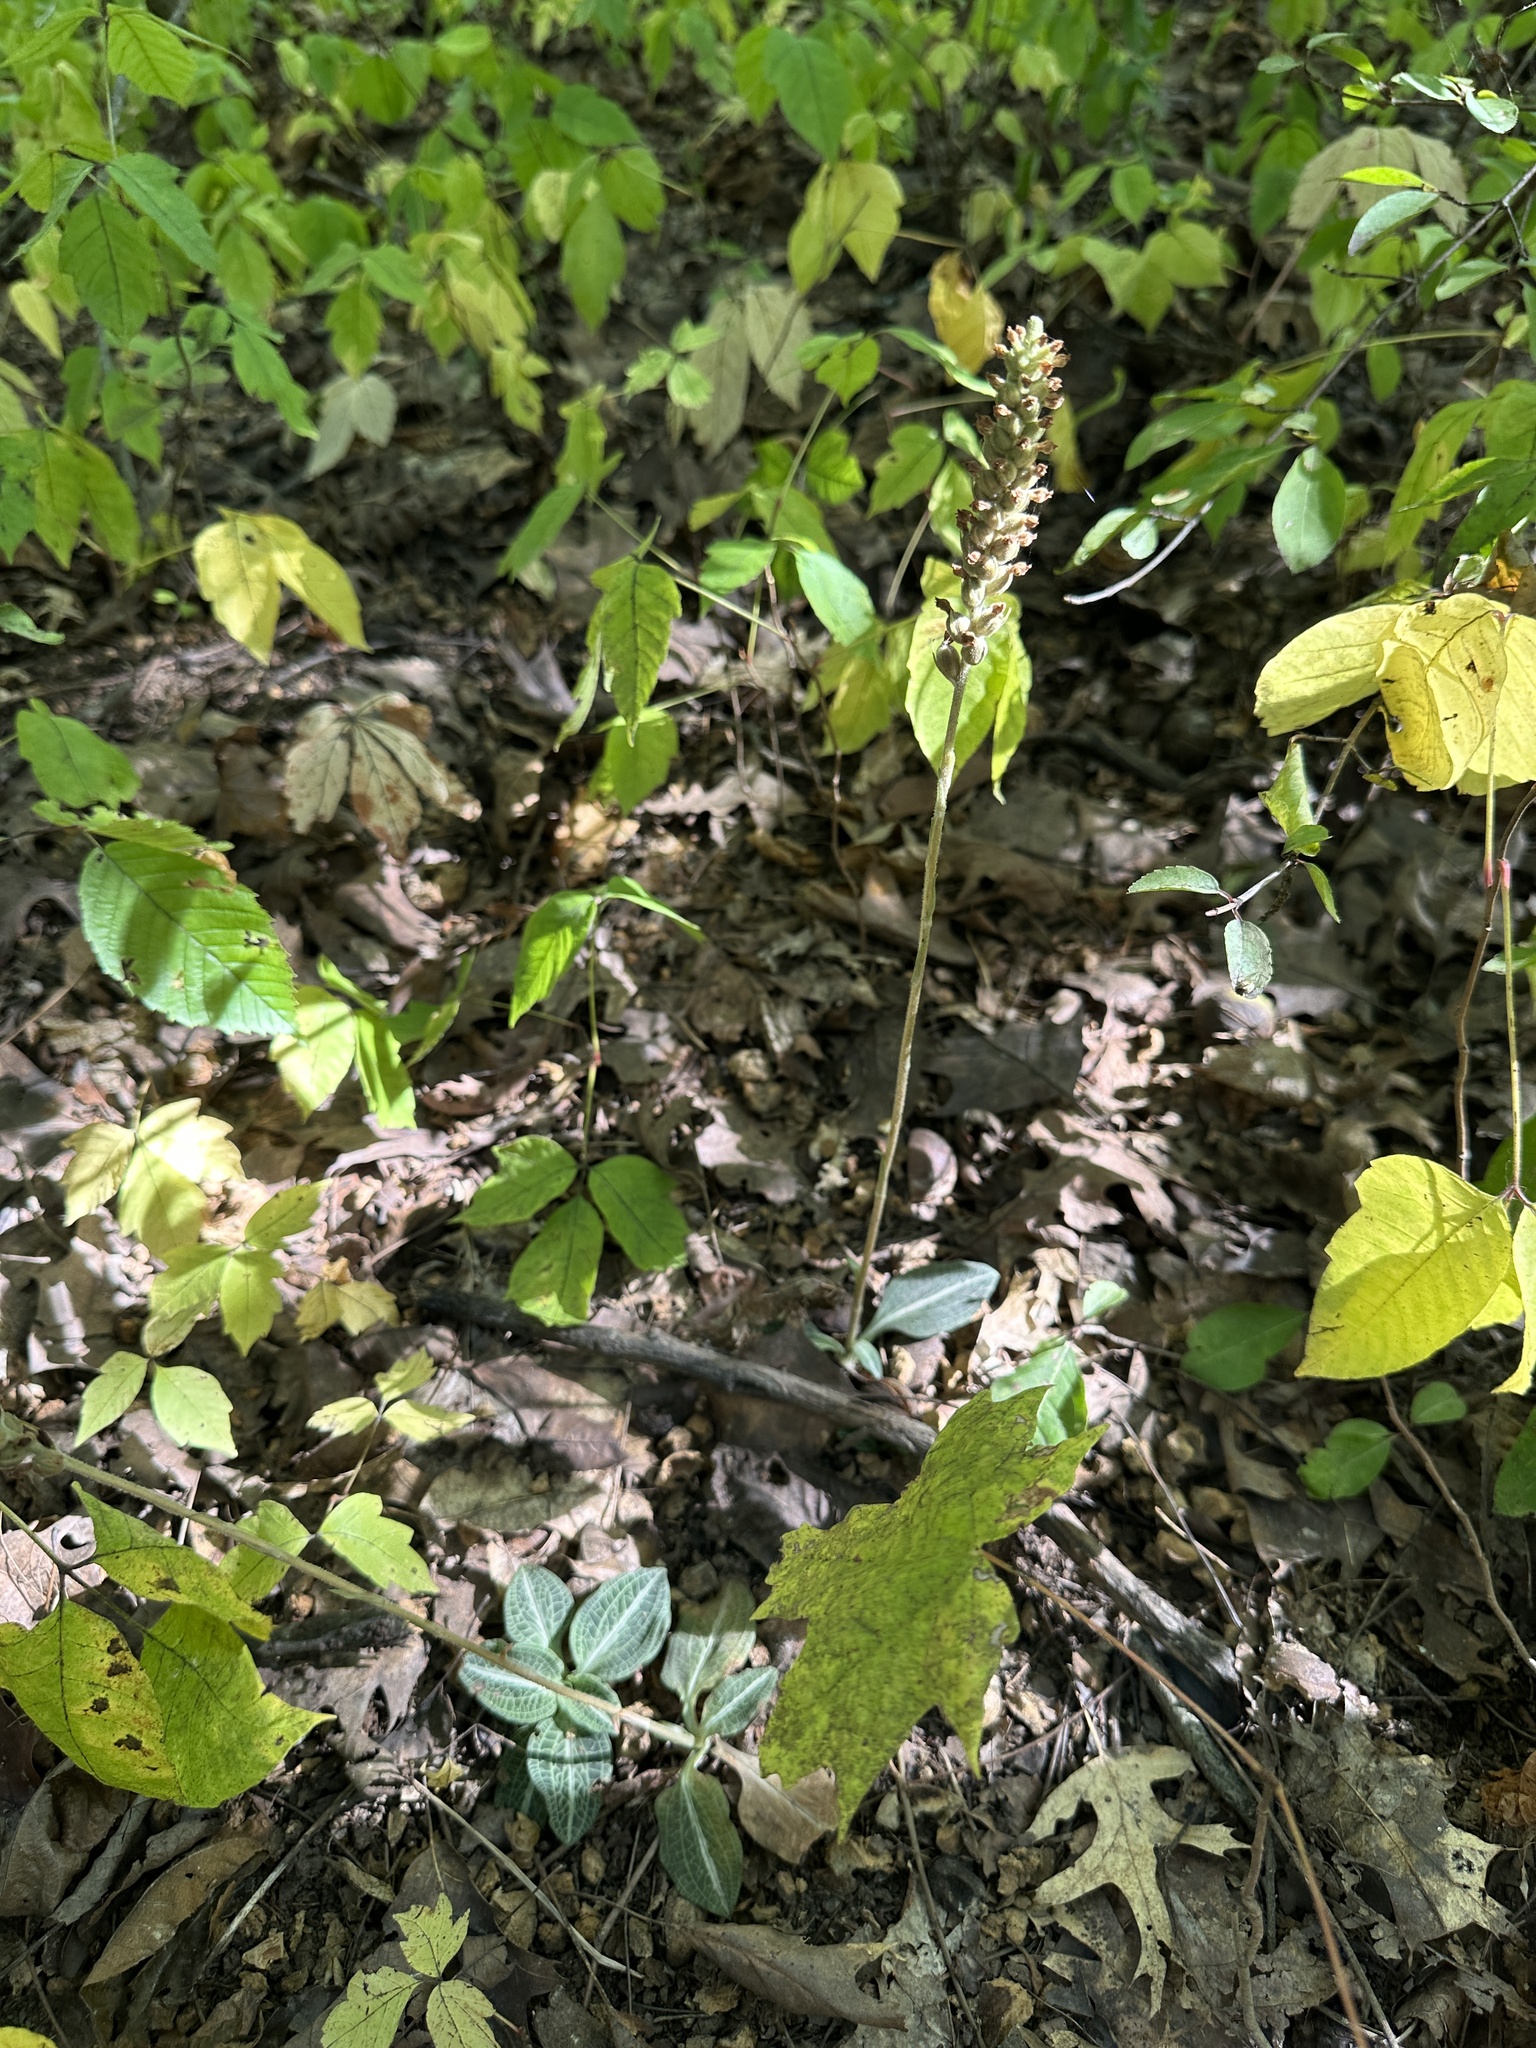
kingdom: Plantae
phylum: Tracheophyta
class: Liliopsida
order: Asparagales
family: Orchidaceae
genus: Goodyera
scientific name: Goodyera pubescens
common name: Downy rattlesnake-plantain
